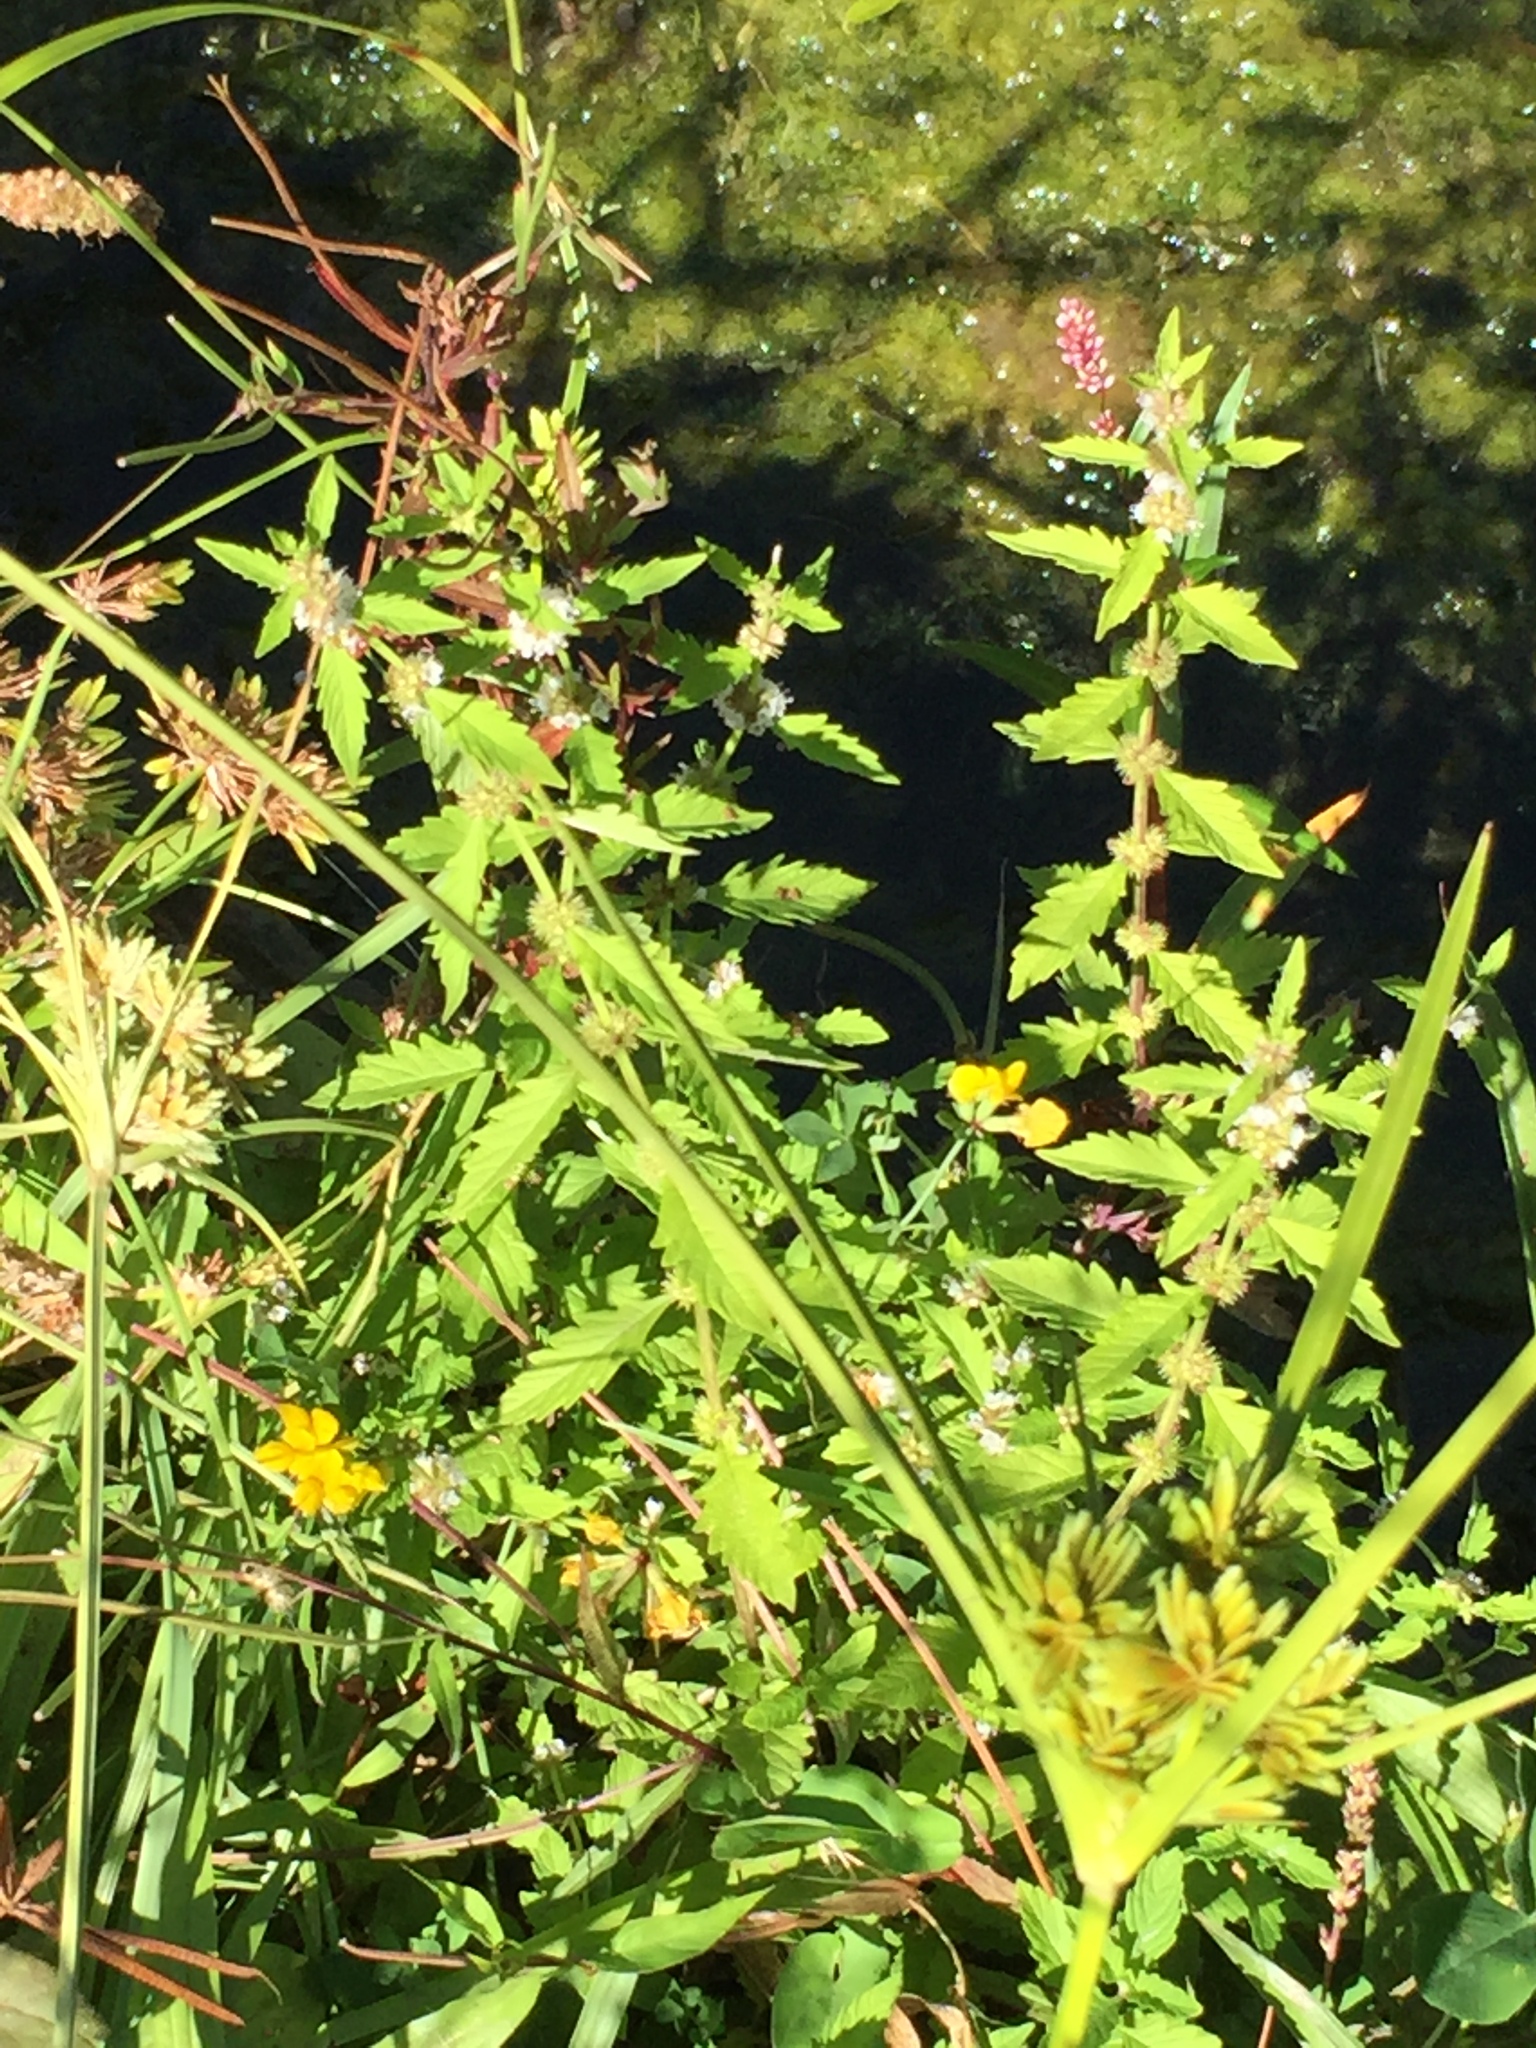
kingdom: Plantae
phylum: Tracheophyta
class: Magnoliopsida
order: Lamiales
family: Lamiaceae
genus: Lycopus
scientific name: Lycopus europaeus
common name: European bugleweed
